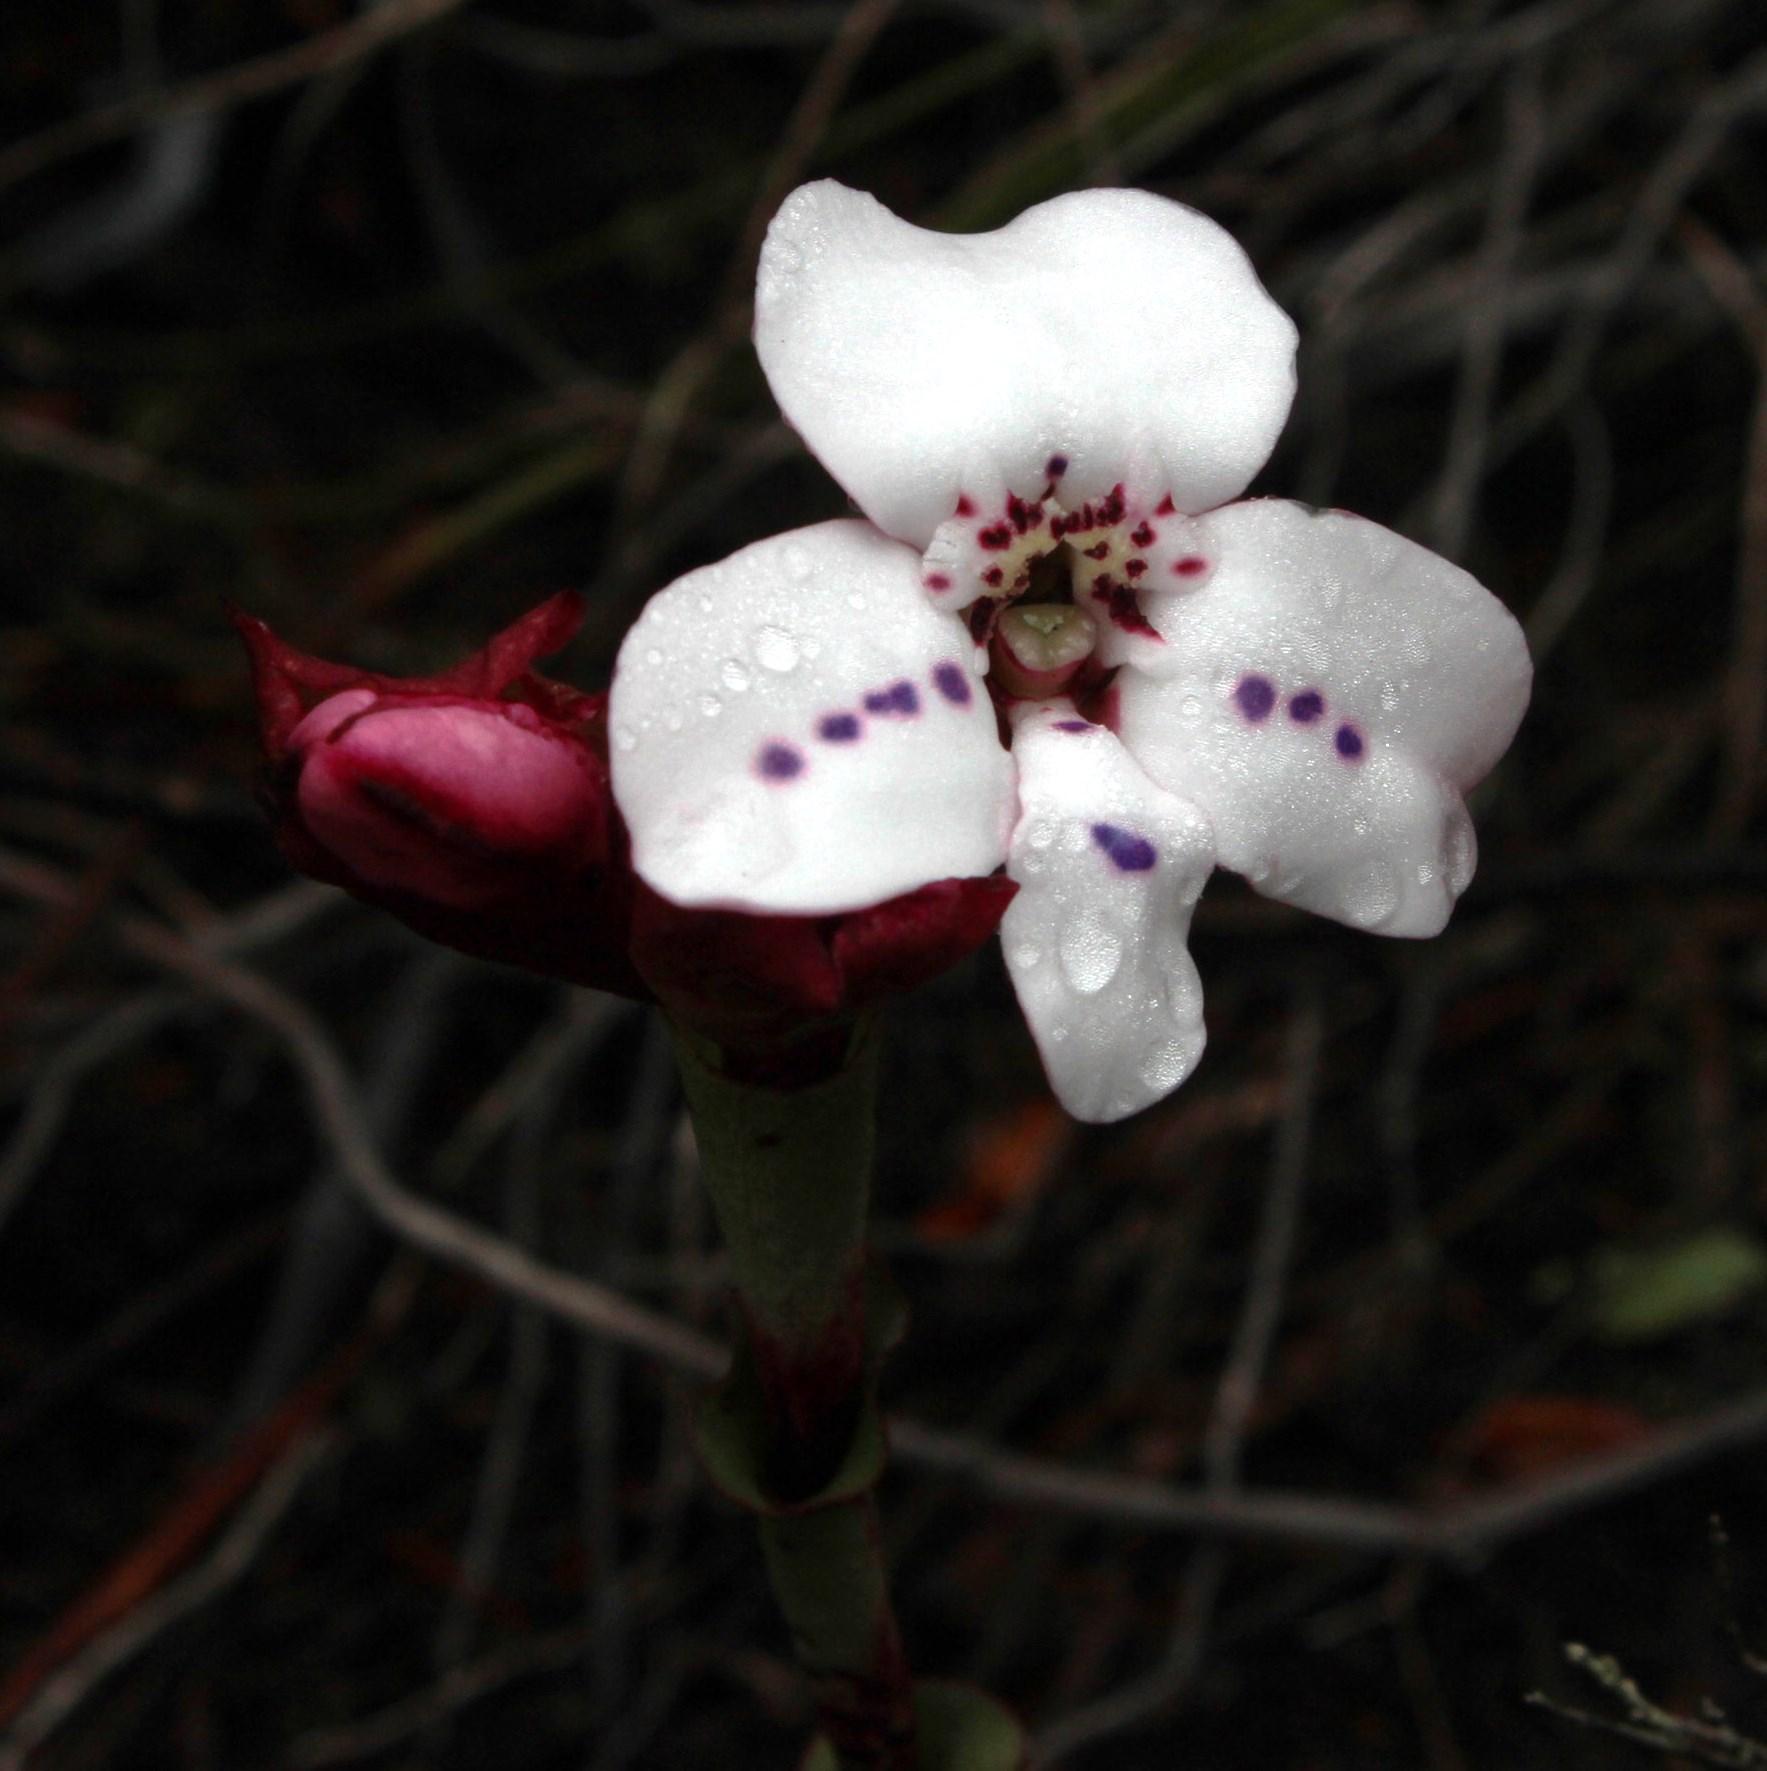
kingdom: Plantae
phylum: Tracheophyta
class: Liliopsida
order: Asparagales
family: Orchidaceae
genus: Disa
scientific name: Disa fasciata
